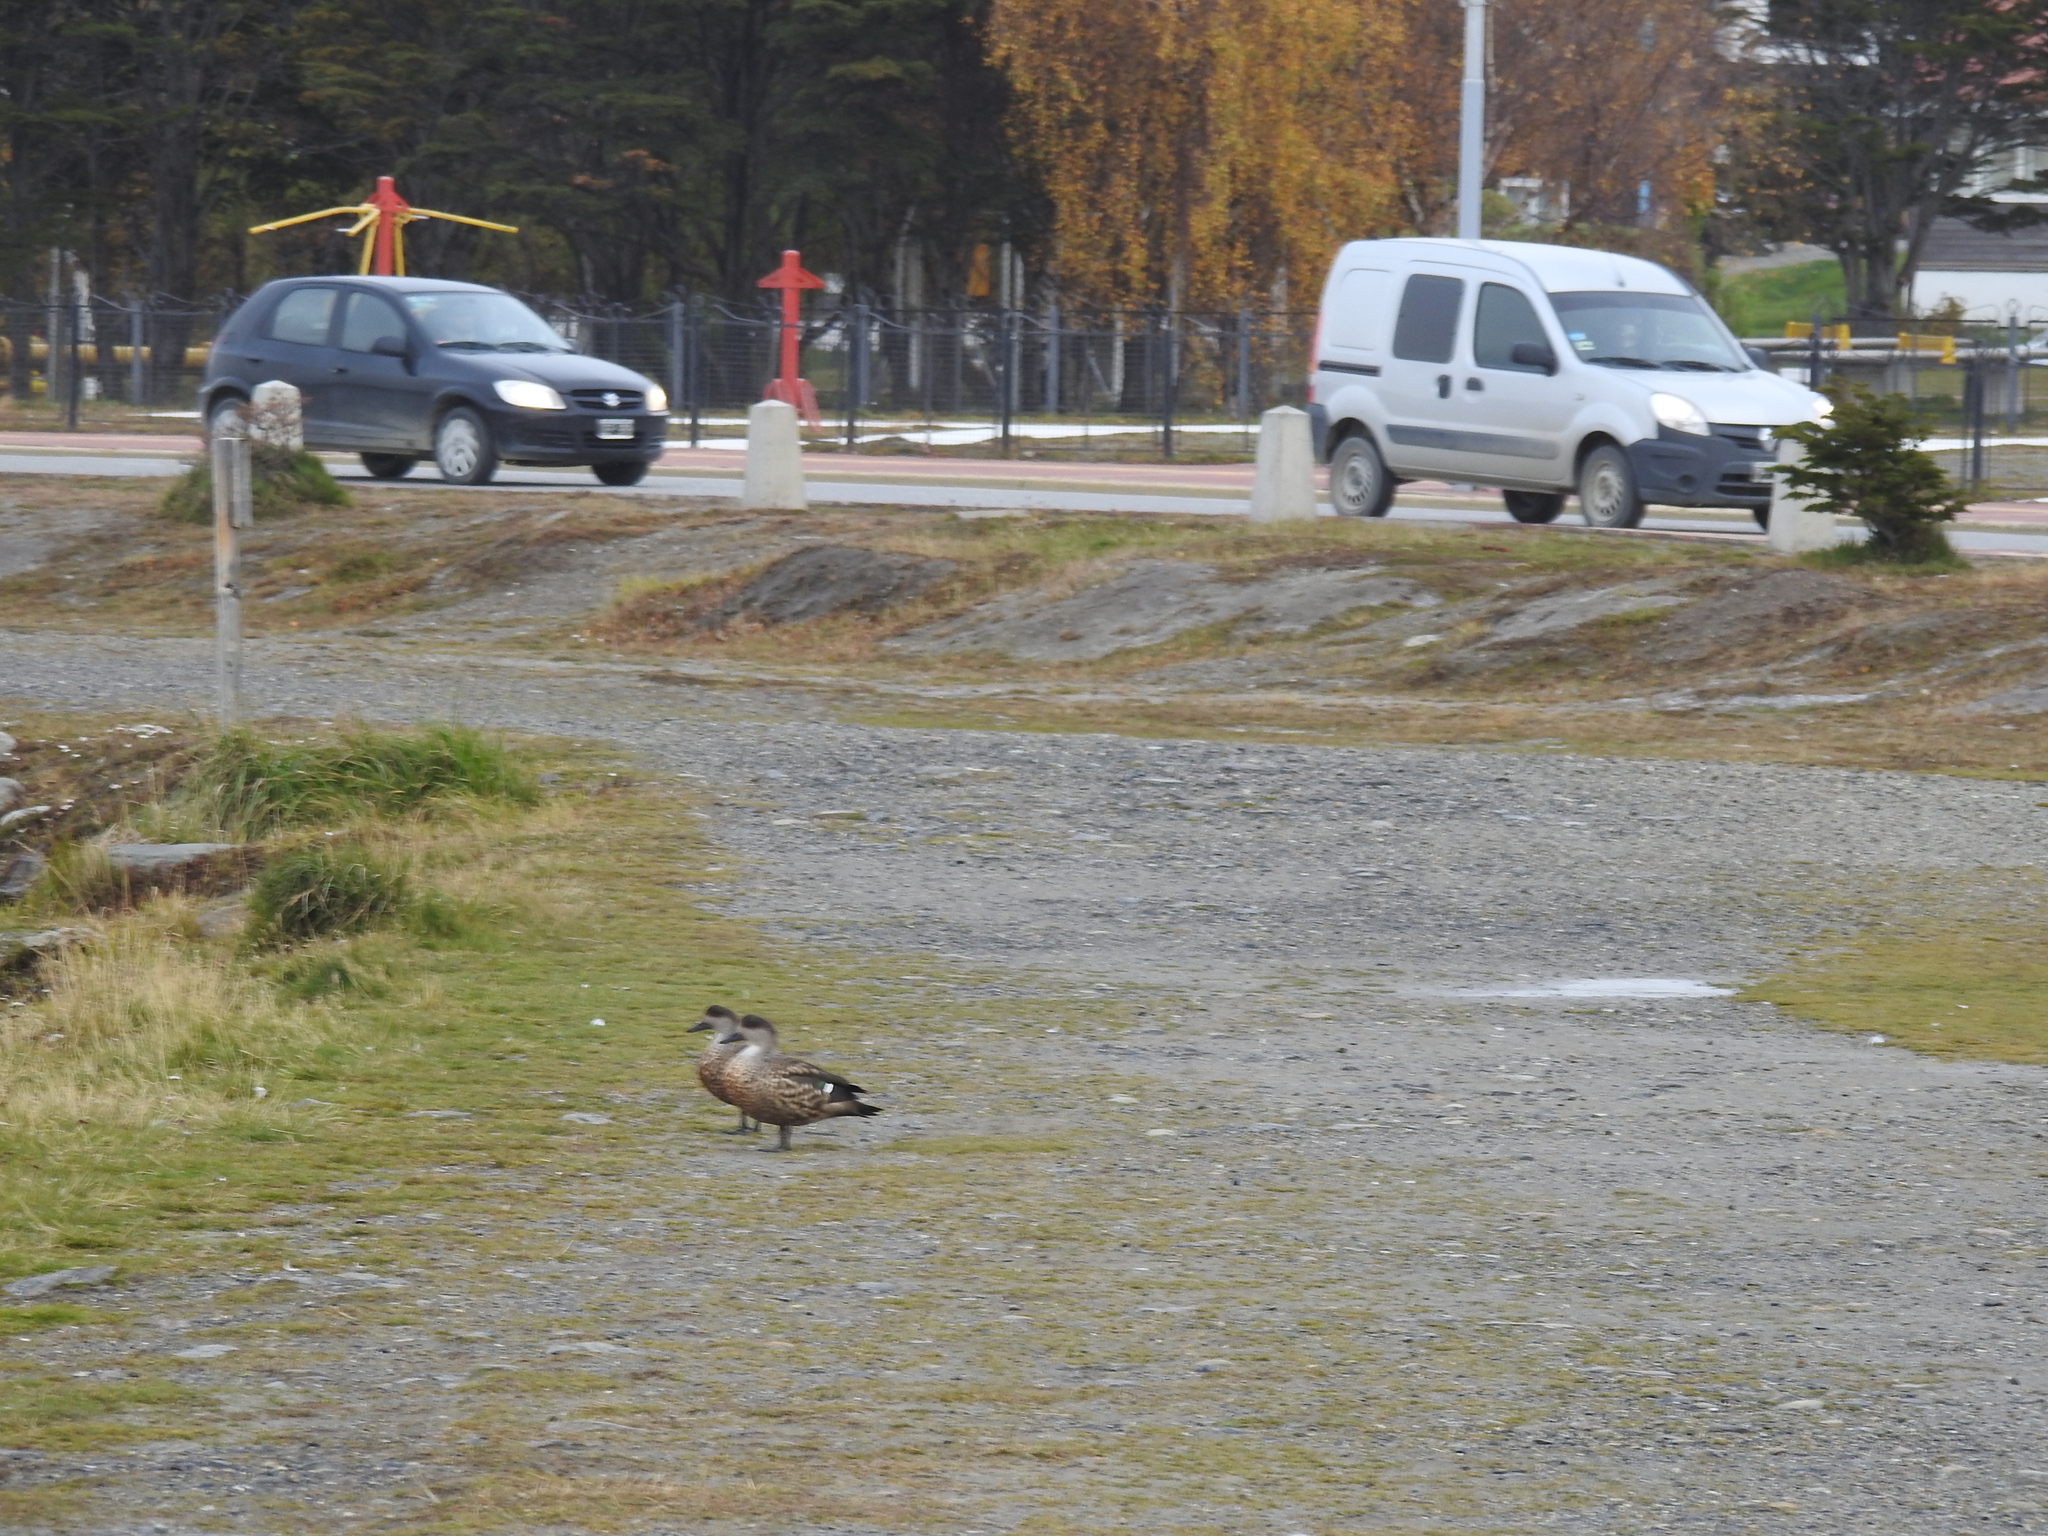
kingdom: Animalia
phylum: Chordata
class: Aves
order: Anseriformes
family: Anatidae
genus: Lophonetta
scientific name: Lophonetta specularioides
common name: Crested duck
